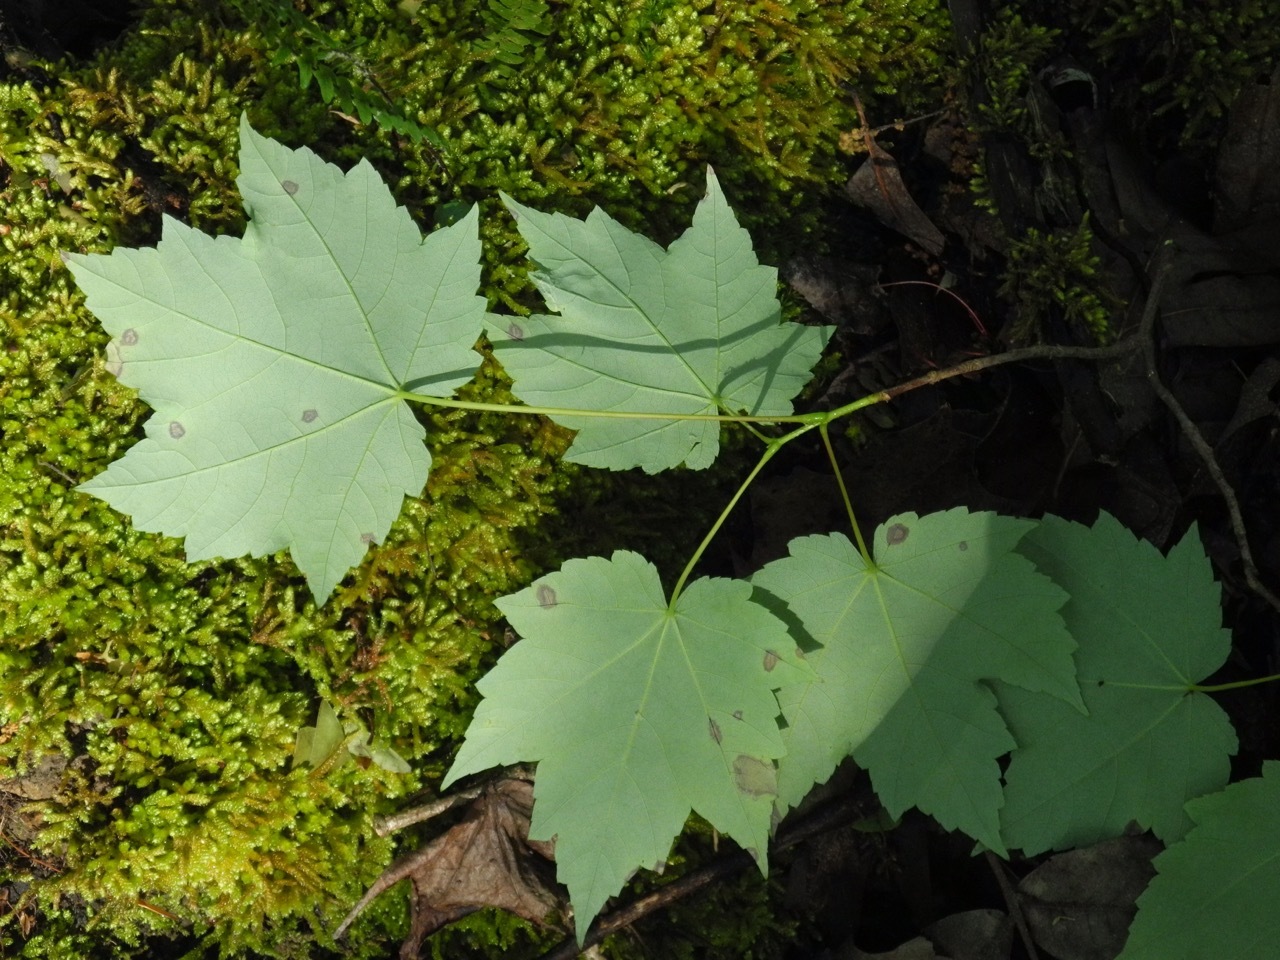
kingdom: Plantae
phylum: Tracheophyta
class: Magnoliopsida
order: Sapindales
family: Sapindaceae
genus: Acer
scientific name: Acer freemanii
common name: Freeman maple
